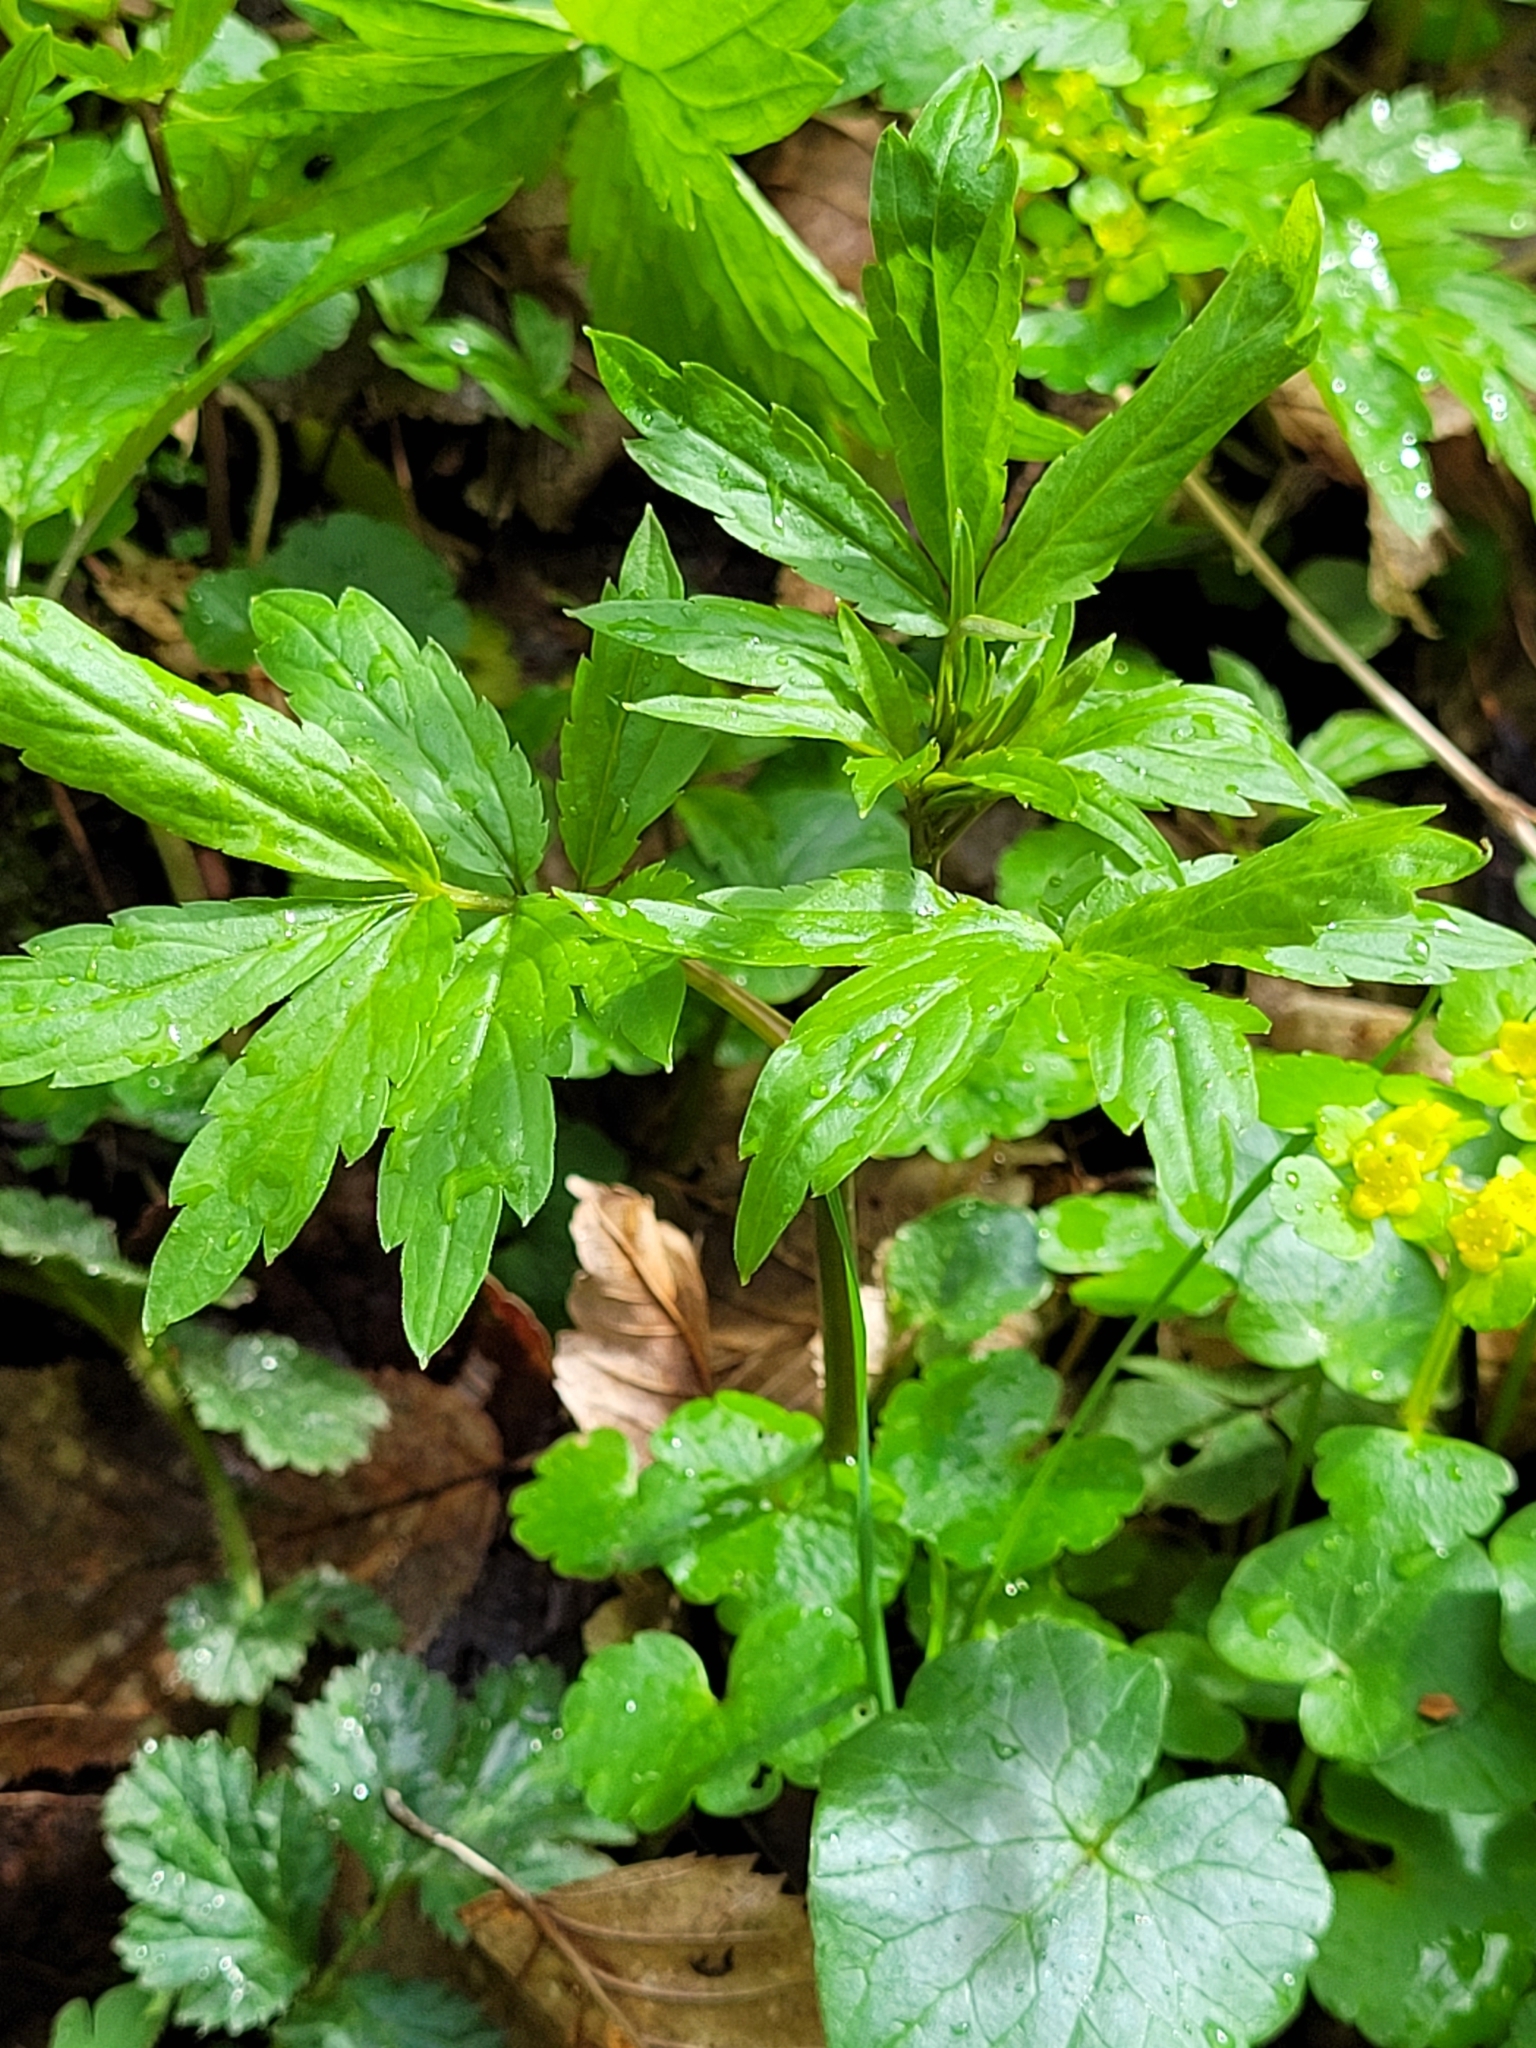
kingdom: Plantae
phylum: Tracheophyta
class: Magnoliopsida
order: Brassicales
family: Brassicaceae
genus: Cardamine
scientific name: Cardamine bulbifera
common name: Coralroot bittercress
